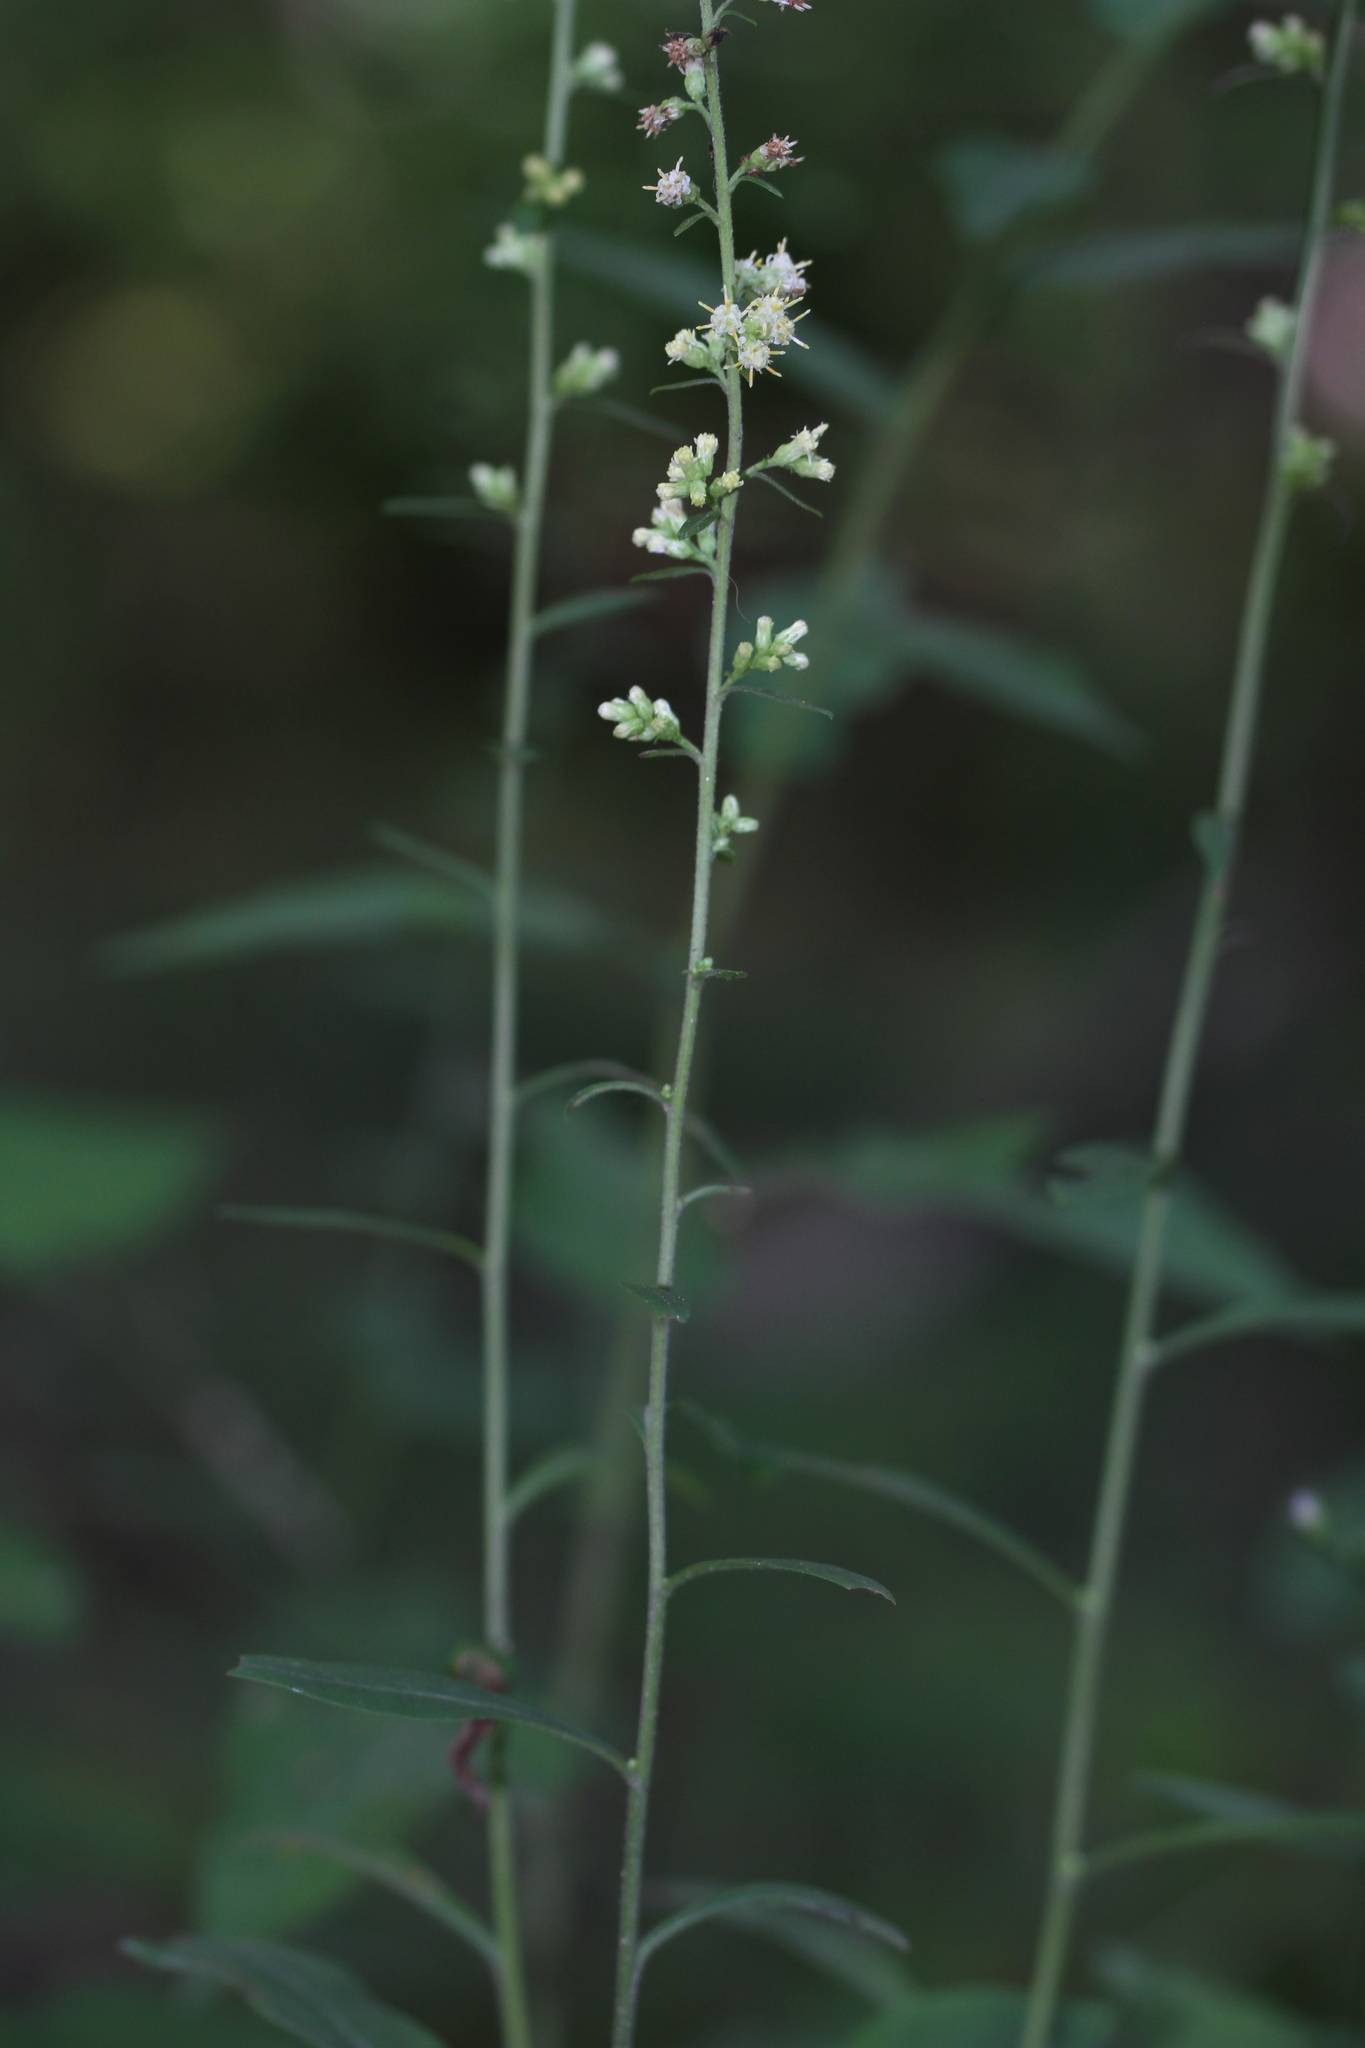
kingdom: Plantae
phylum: Tracheophyta
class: Magnoliopsida
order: Asterales
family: Asteraceae
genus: Solidago
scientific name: Solidago bicolor
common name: Silverrod
